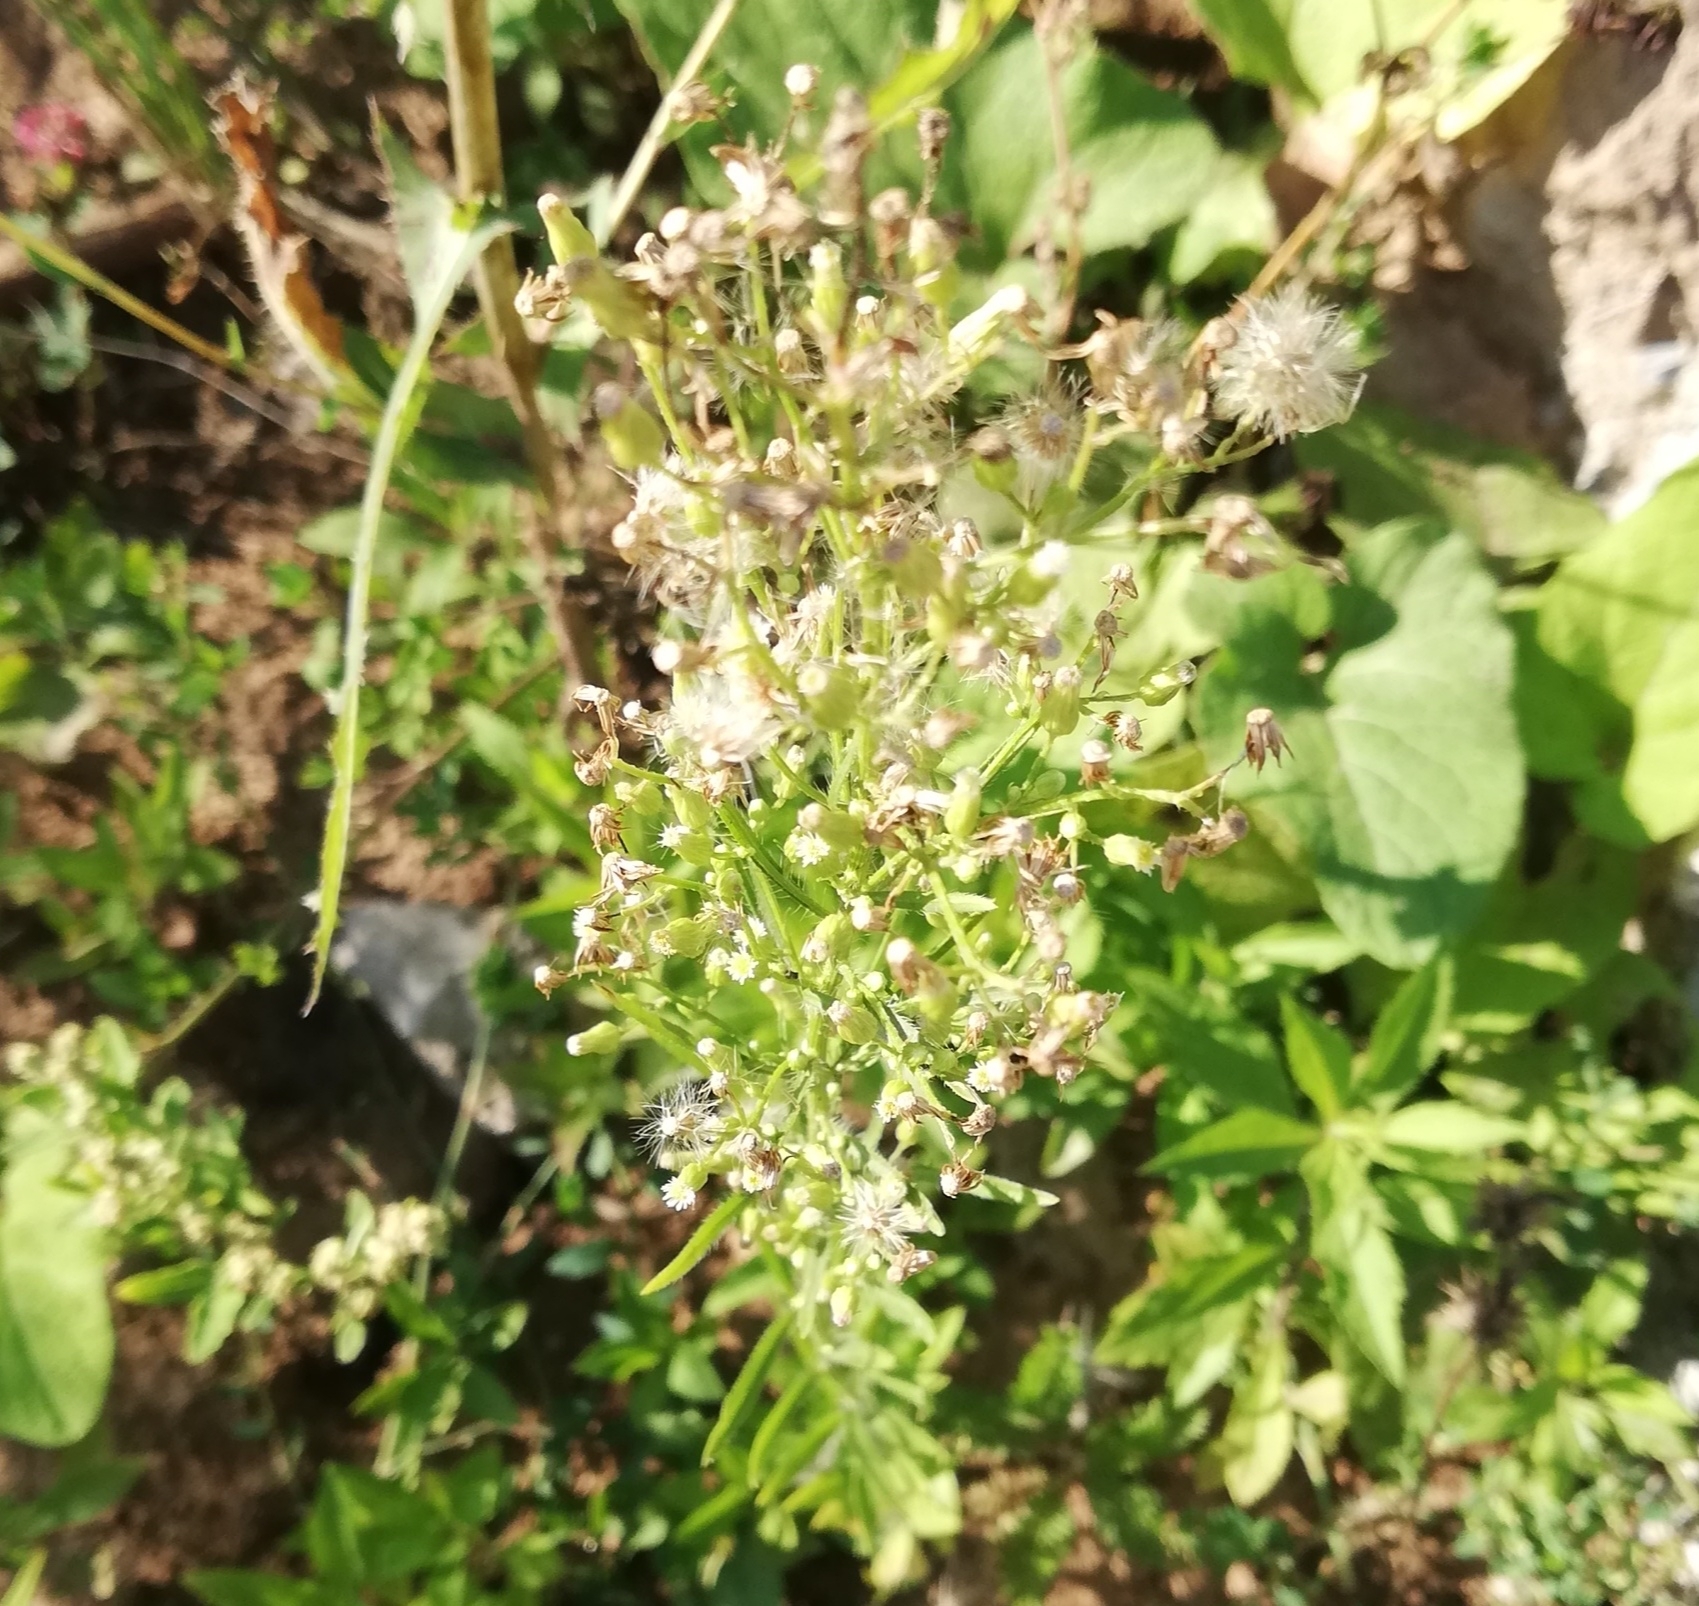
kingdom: Plantae
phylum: Tracheophyta
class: Magnoliopsida
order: Asterales
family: Asteraceae
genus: Erigeron
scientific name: Erigeron canadensis
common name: Canadian fleabane
